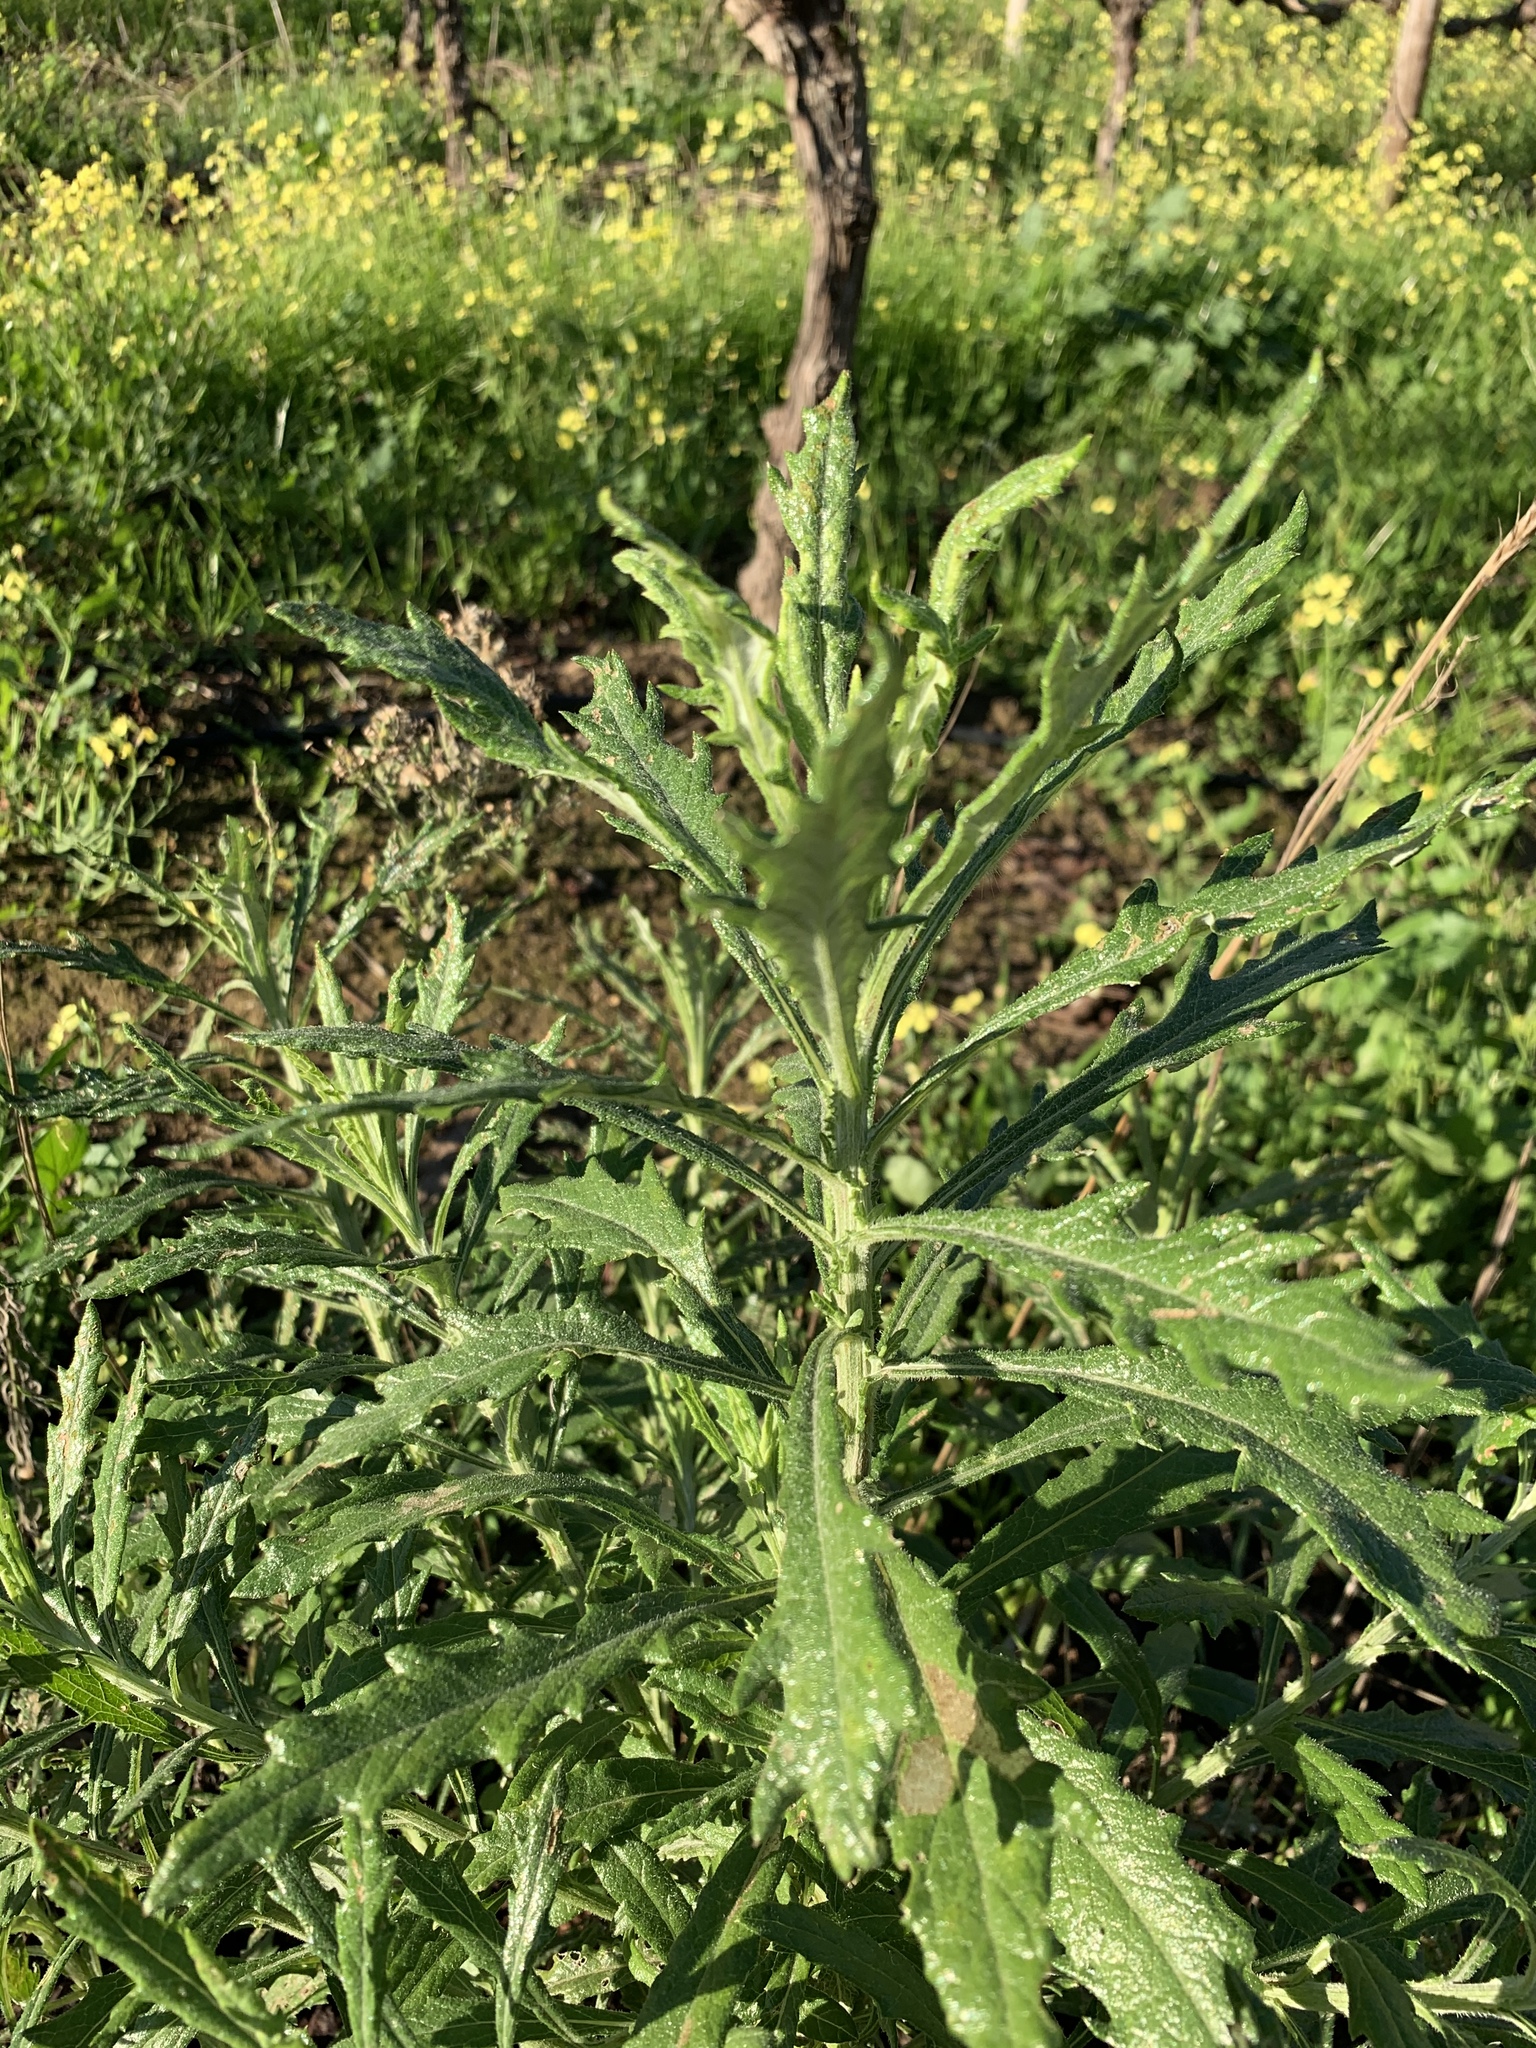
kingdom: Plantae
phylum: Tracheophyta
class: Magnoliopsida
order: Asterales
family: Asteraceae
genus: Senecio
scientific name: Senecio pterophorus
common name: Shoddy ragwort
